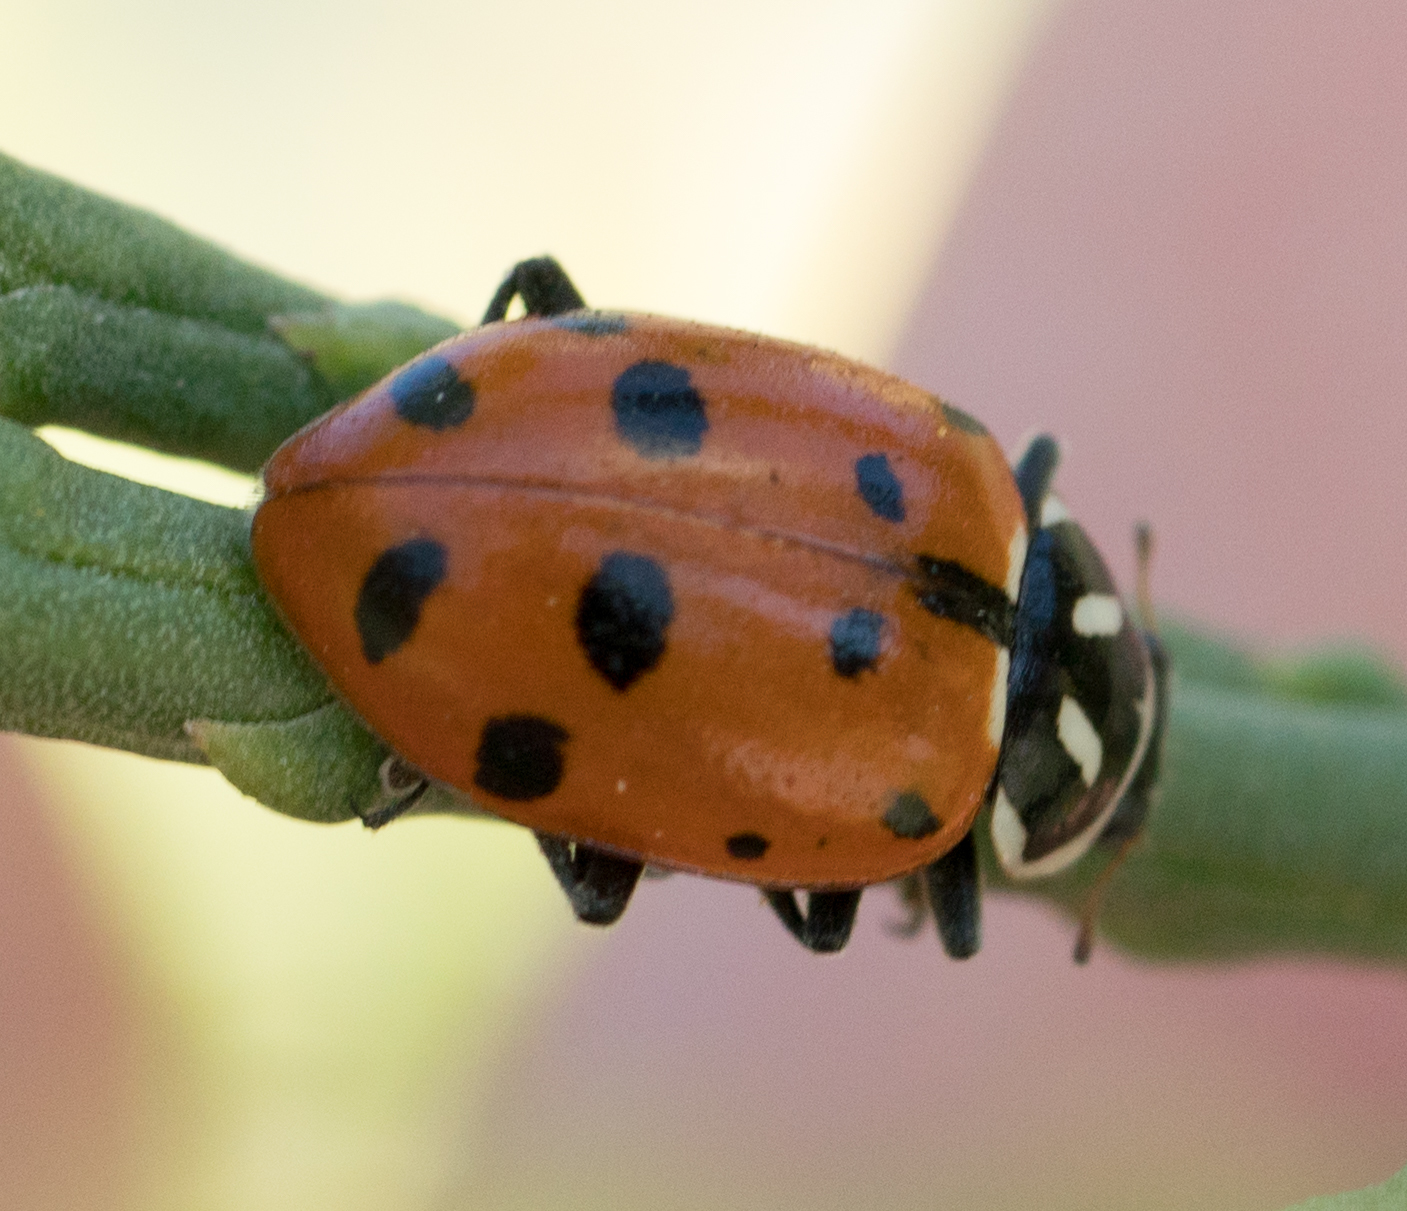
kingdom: Animalia
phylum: Arthropoda
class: Insecta
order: Coleoptera
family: Coccinellidae
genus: Hippodamia
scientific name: Hippodamia convergens
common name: Convergent lady beetle
